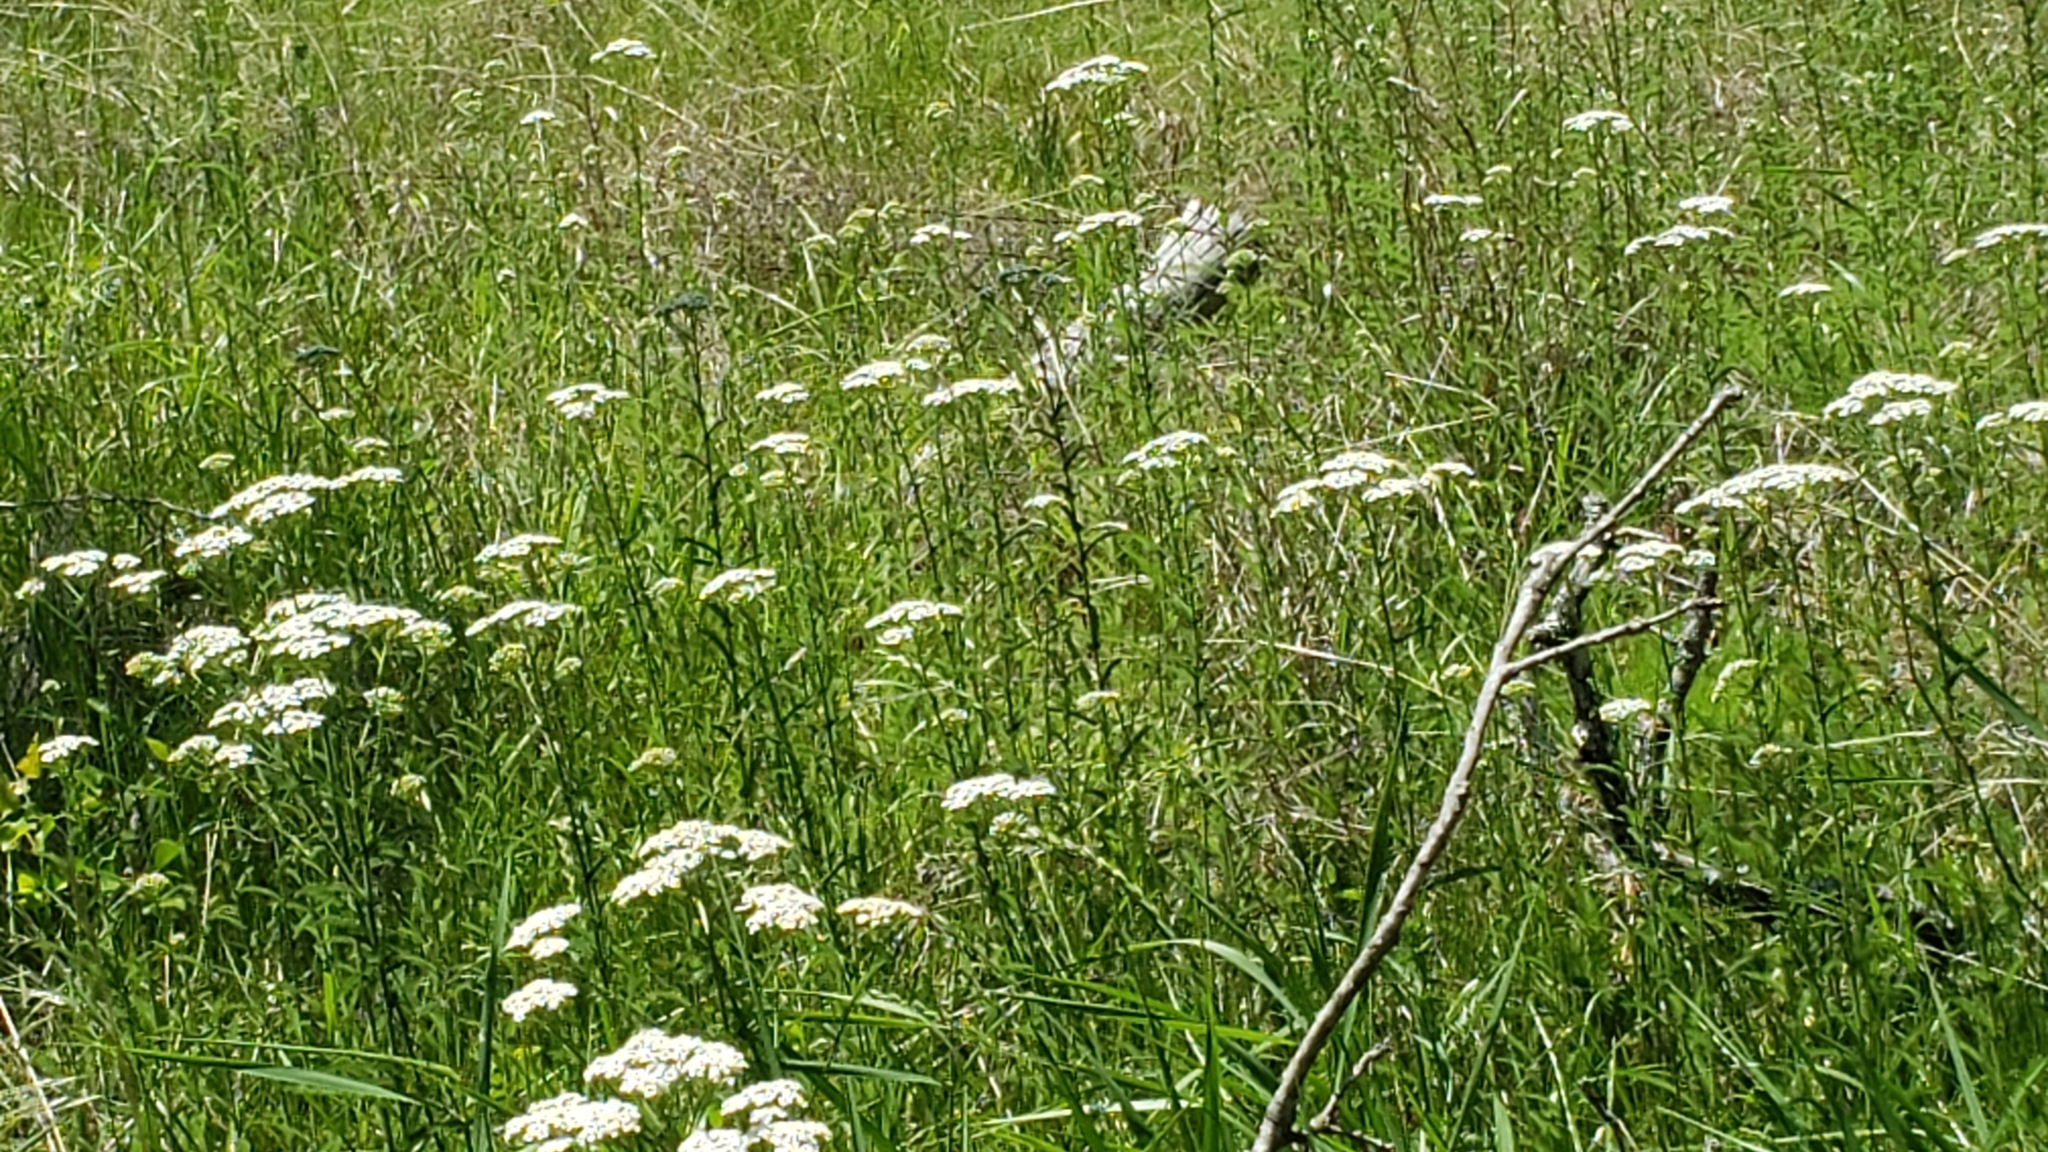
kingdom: Plantae
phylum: Tracheophyta
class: Magnoliopsida
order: Asterales
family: Asteraceae
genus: Achillea
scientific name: Achillea millefolium
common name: Yarrow
